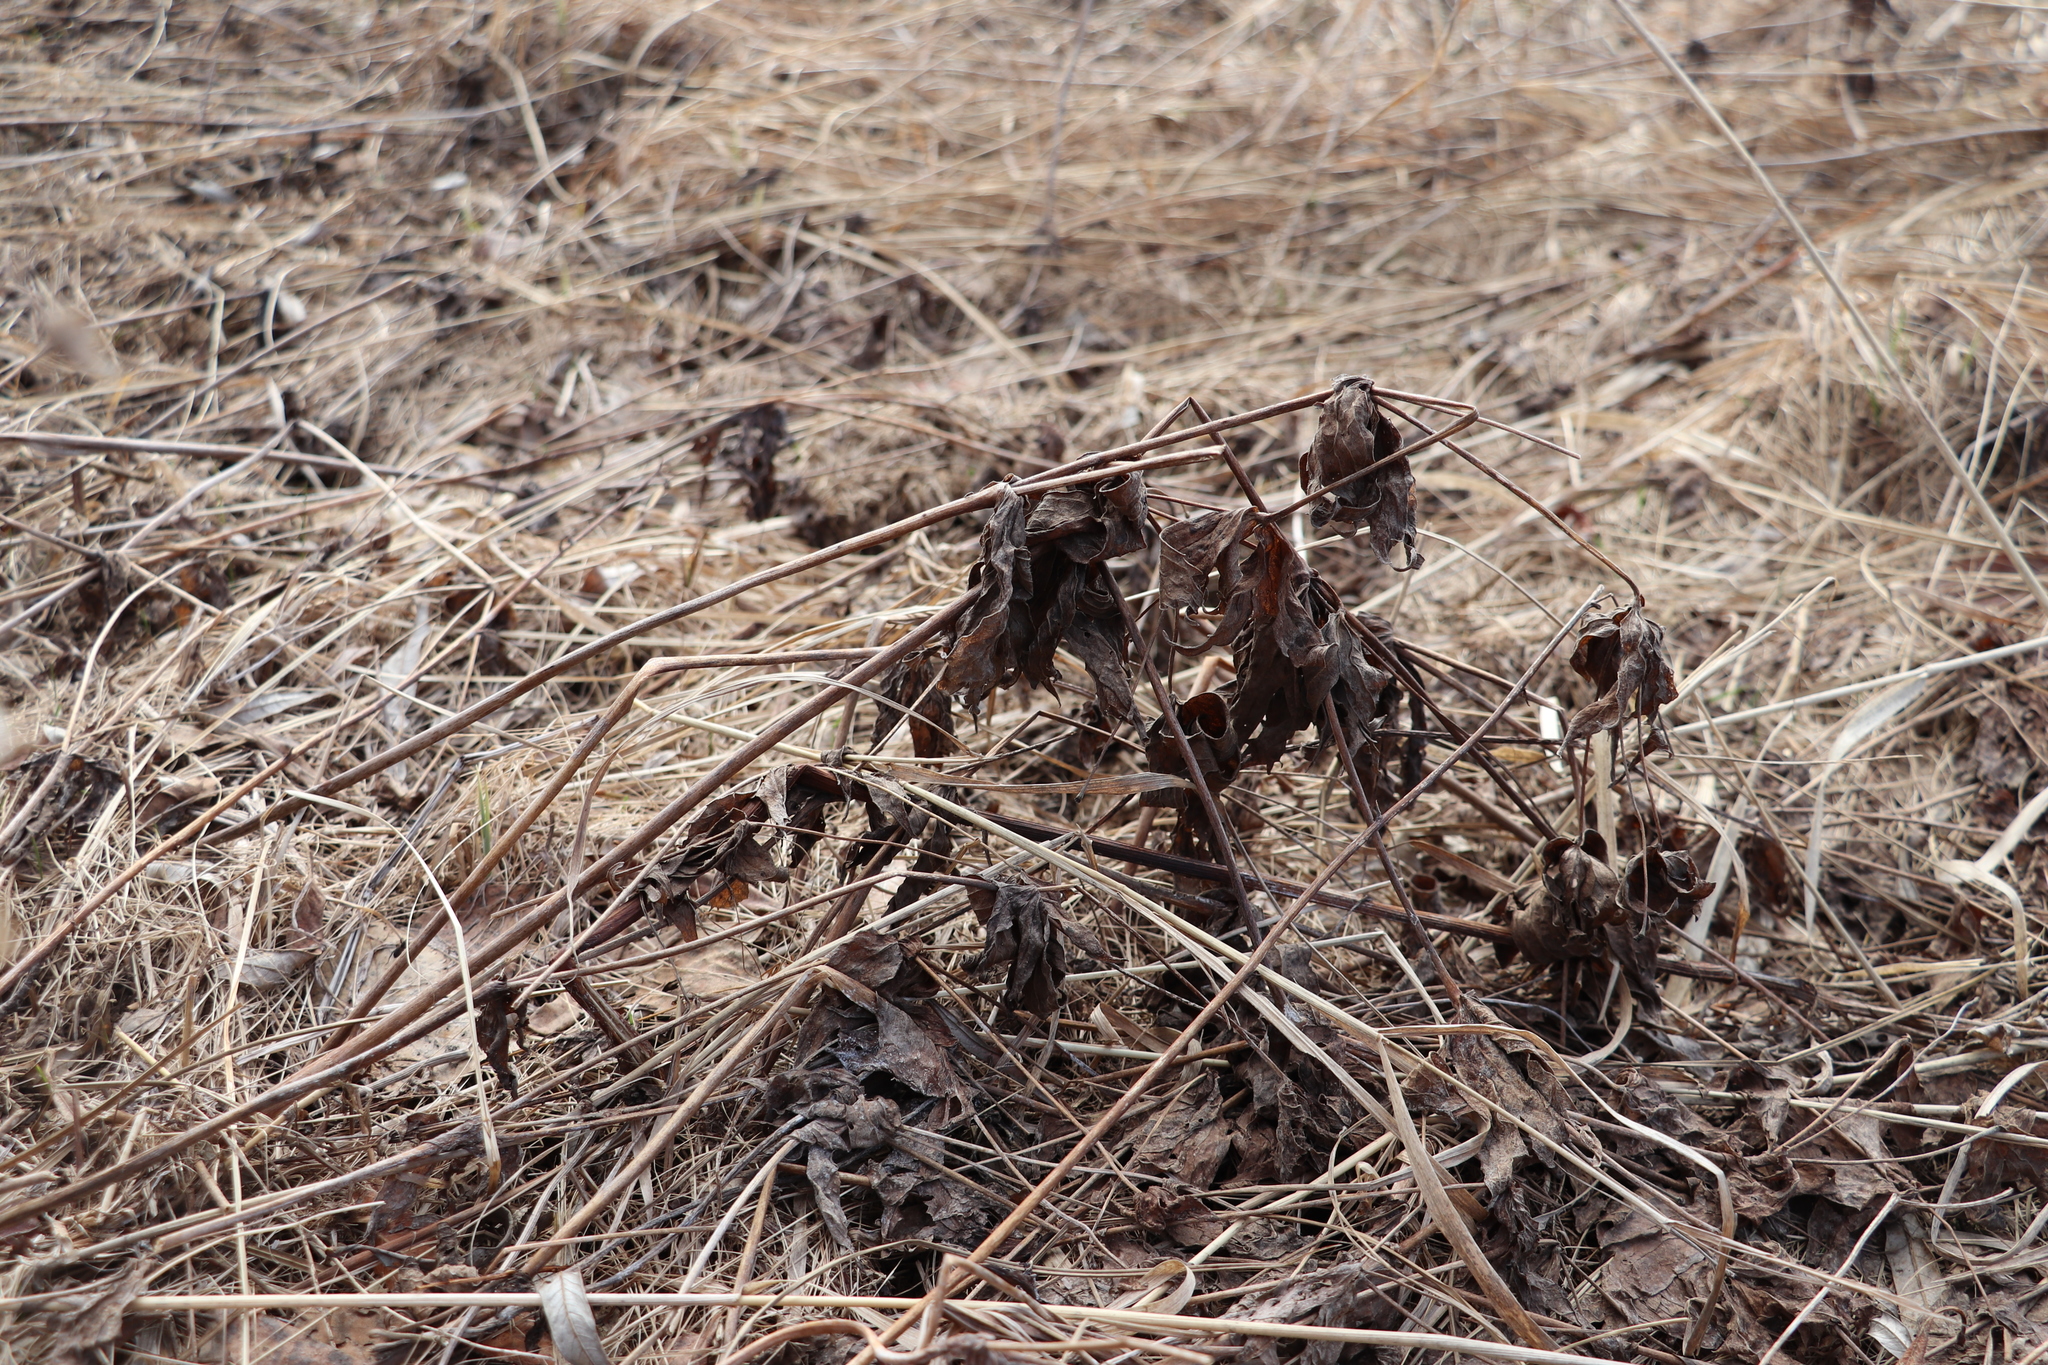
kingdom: Plantae
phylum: Tracheophyta
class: Magnoliopsida
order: Ranunculales
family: Ranunculaceae
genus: Anemonastrum
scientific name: Anemonastrum dichotomum
